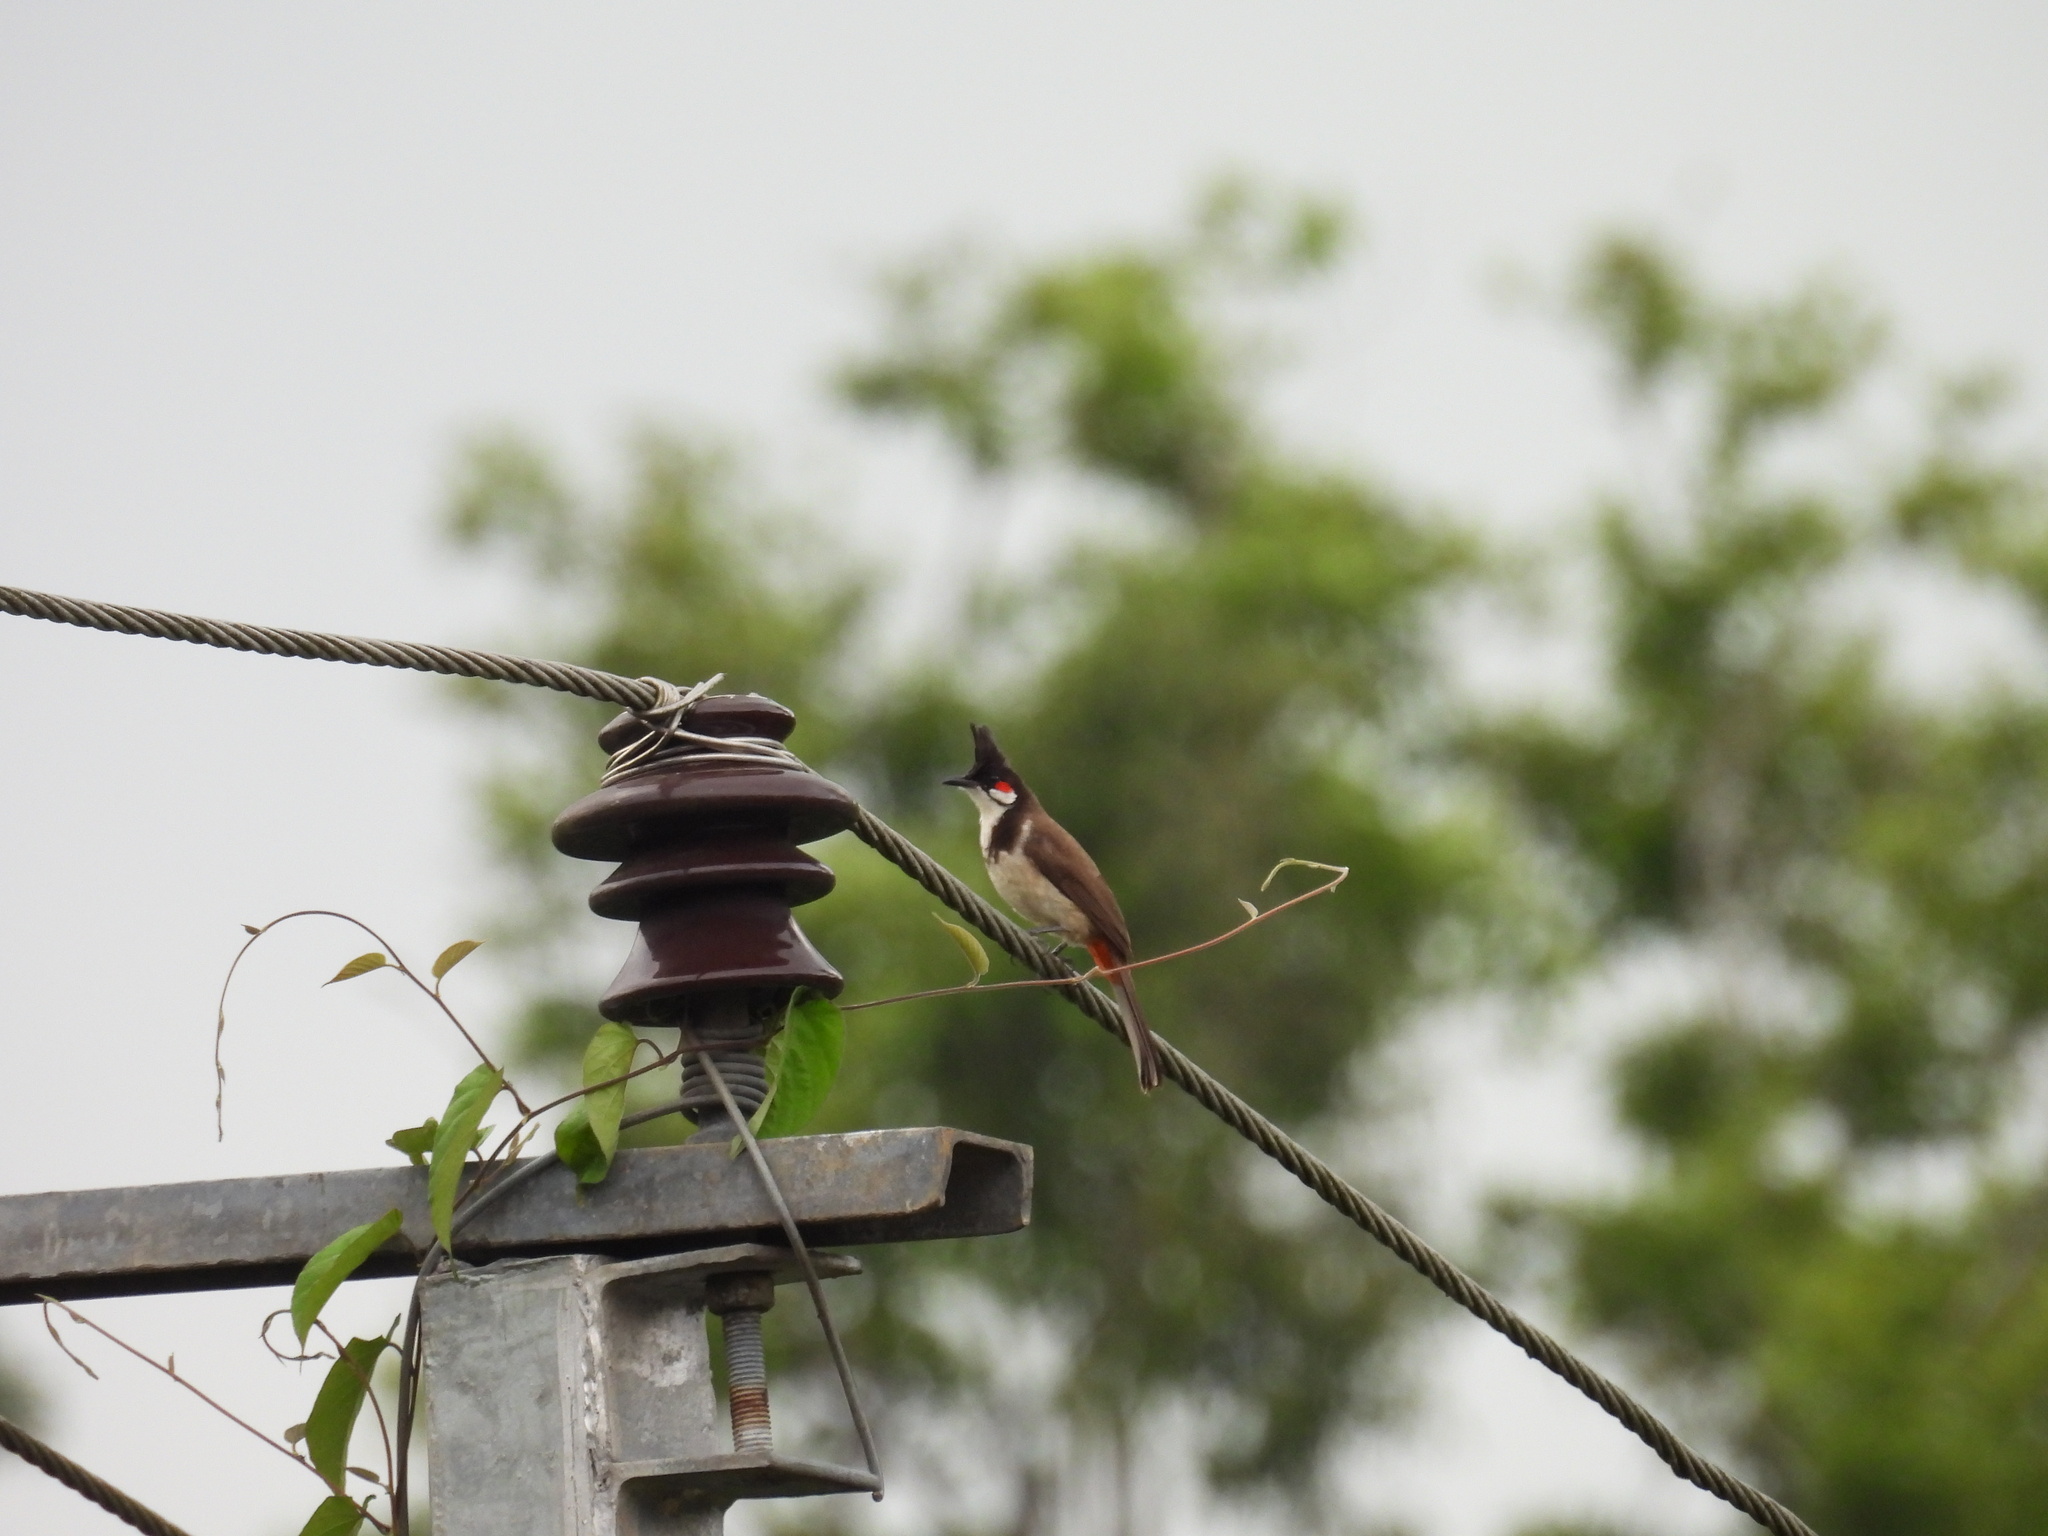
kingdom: Animalia
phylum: Chordata
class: Aves
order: Passeriformes
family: Pycnonotidae
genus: Pycnonotus
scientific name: Pycnonotus jocosus
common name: Red-whiskered bulbul
